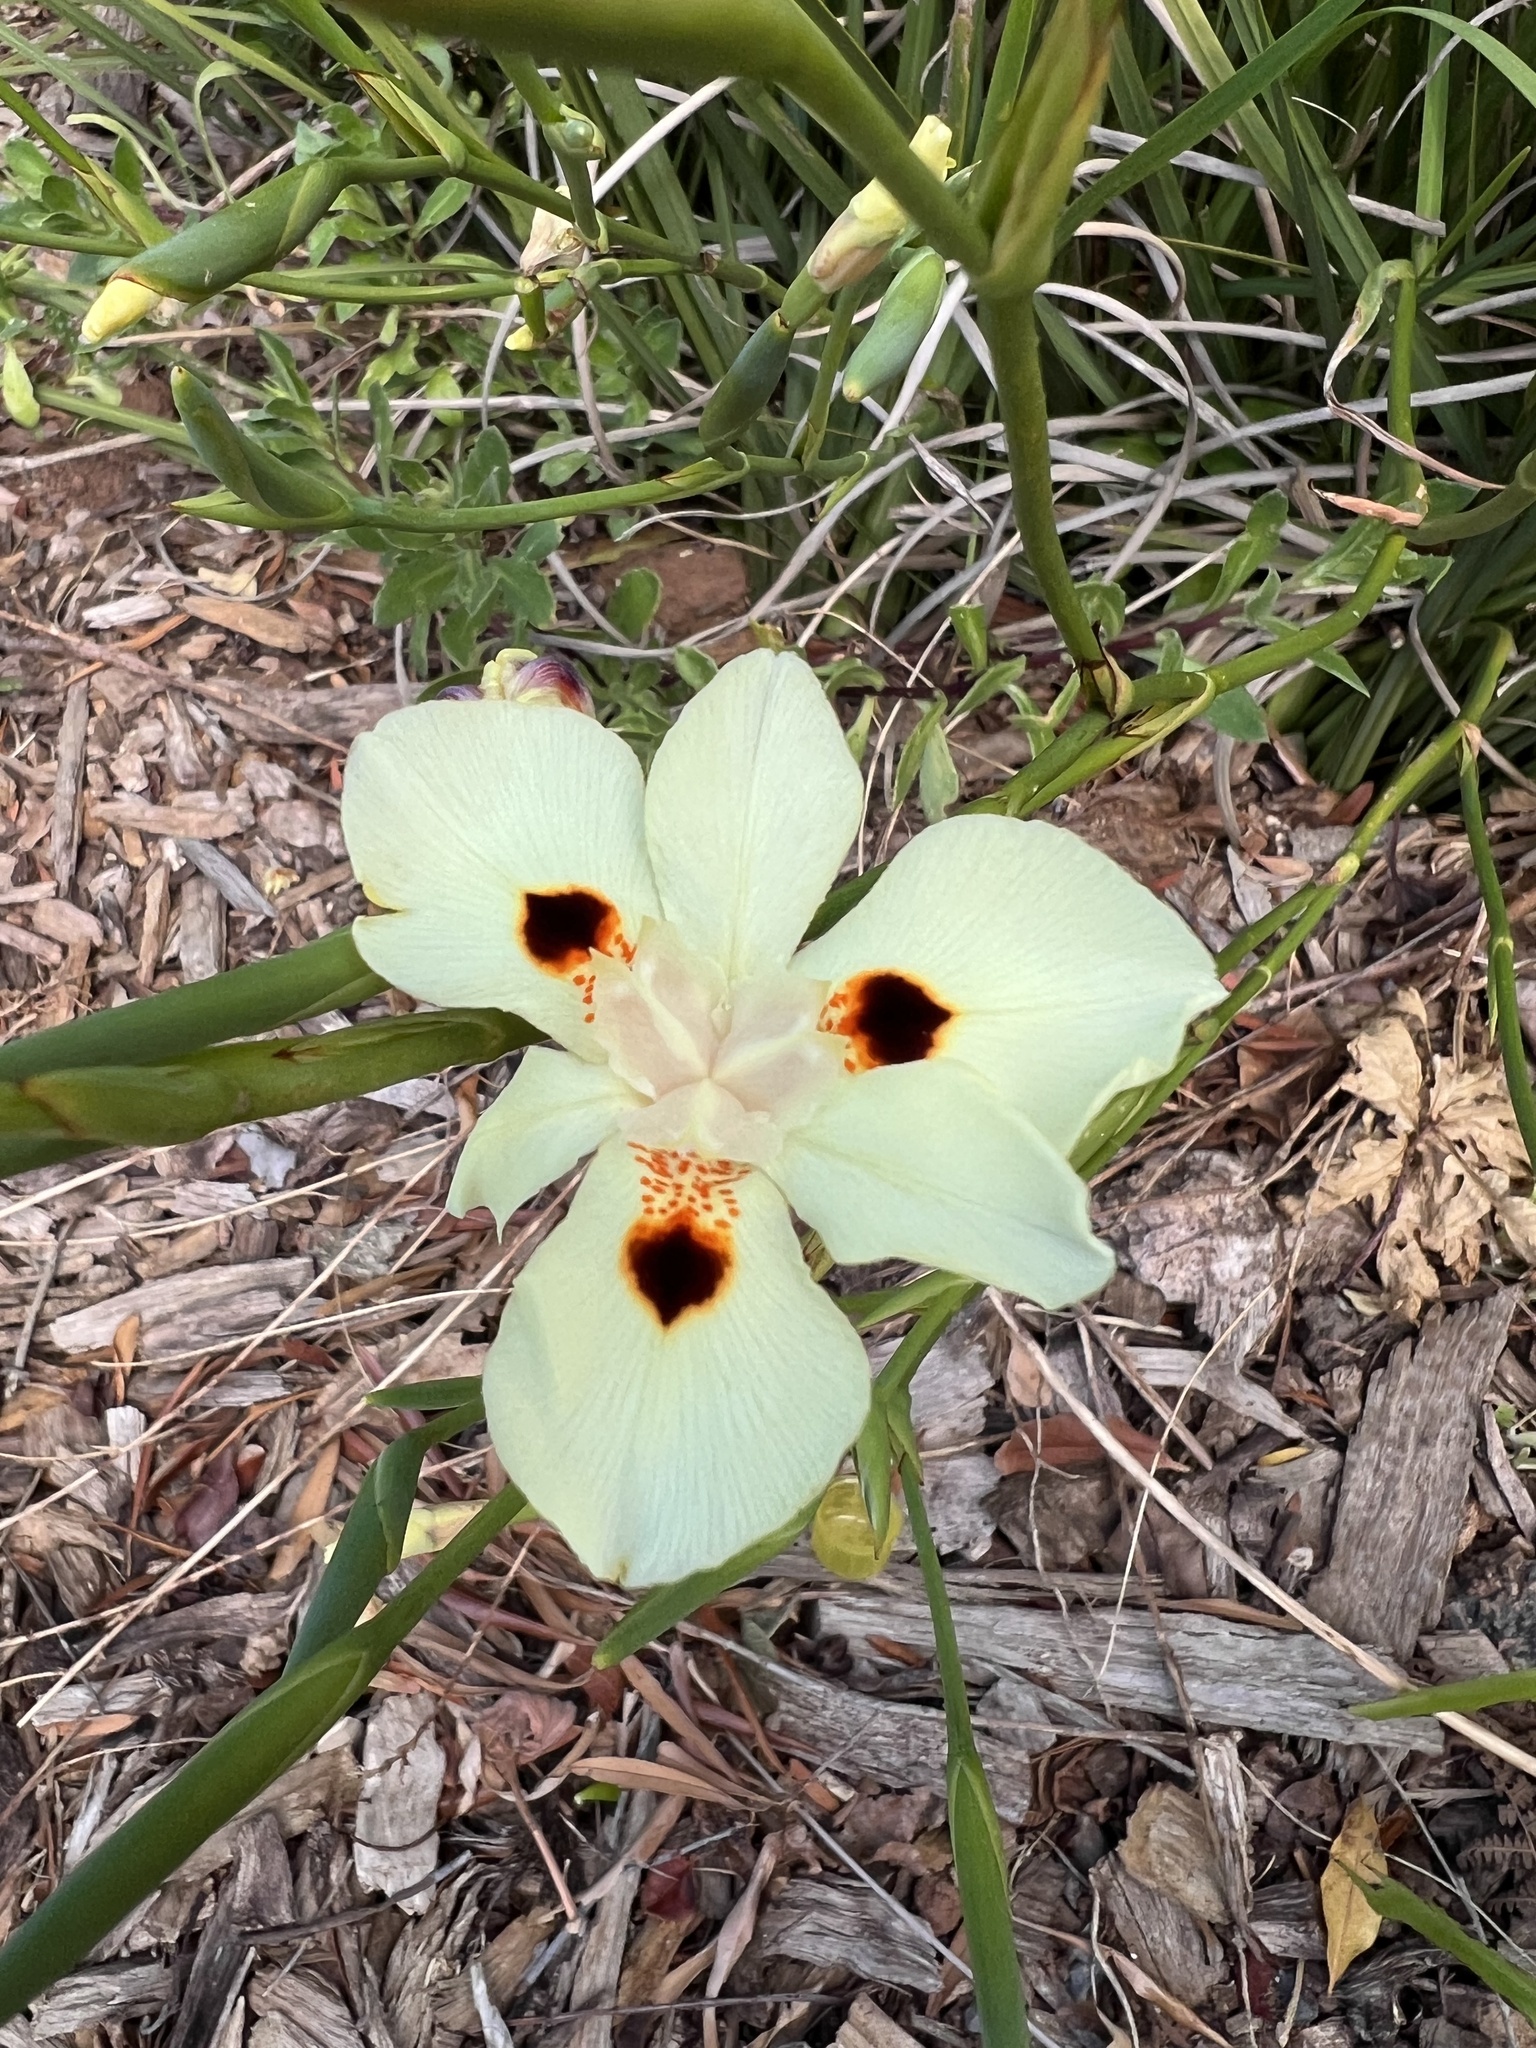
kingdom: Plantae
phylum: Tracheophyta
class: Liliopsida
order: Asparagales
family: Iridaceae
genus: Dietes
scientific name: Dietes bicolor
